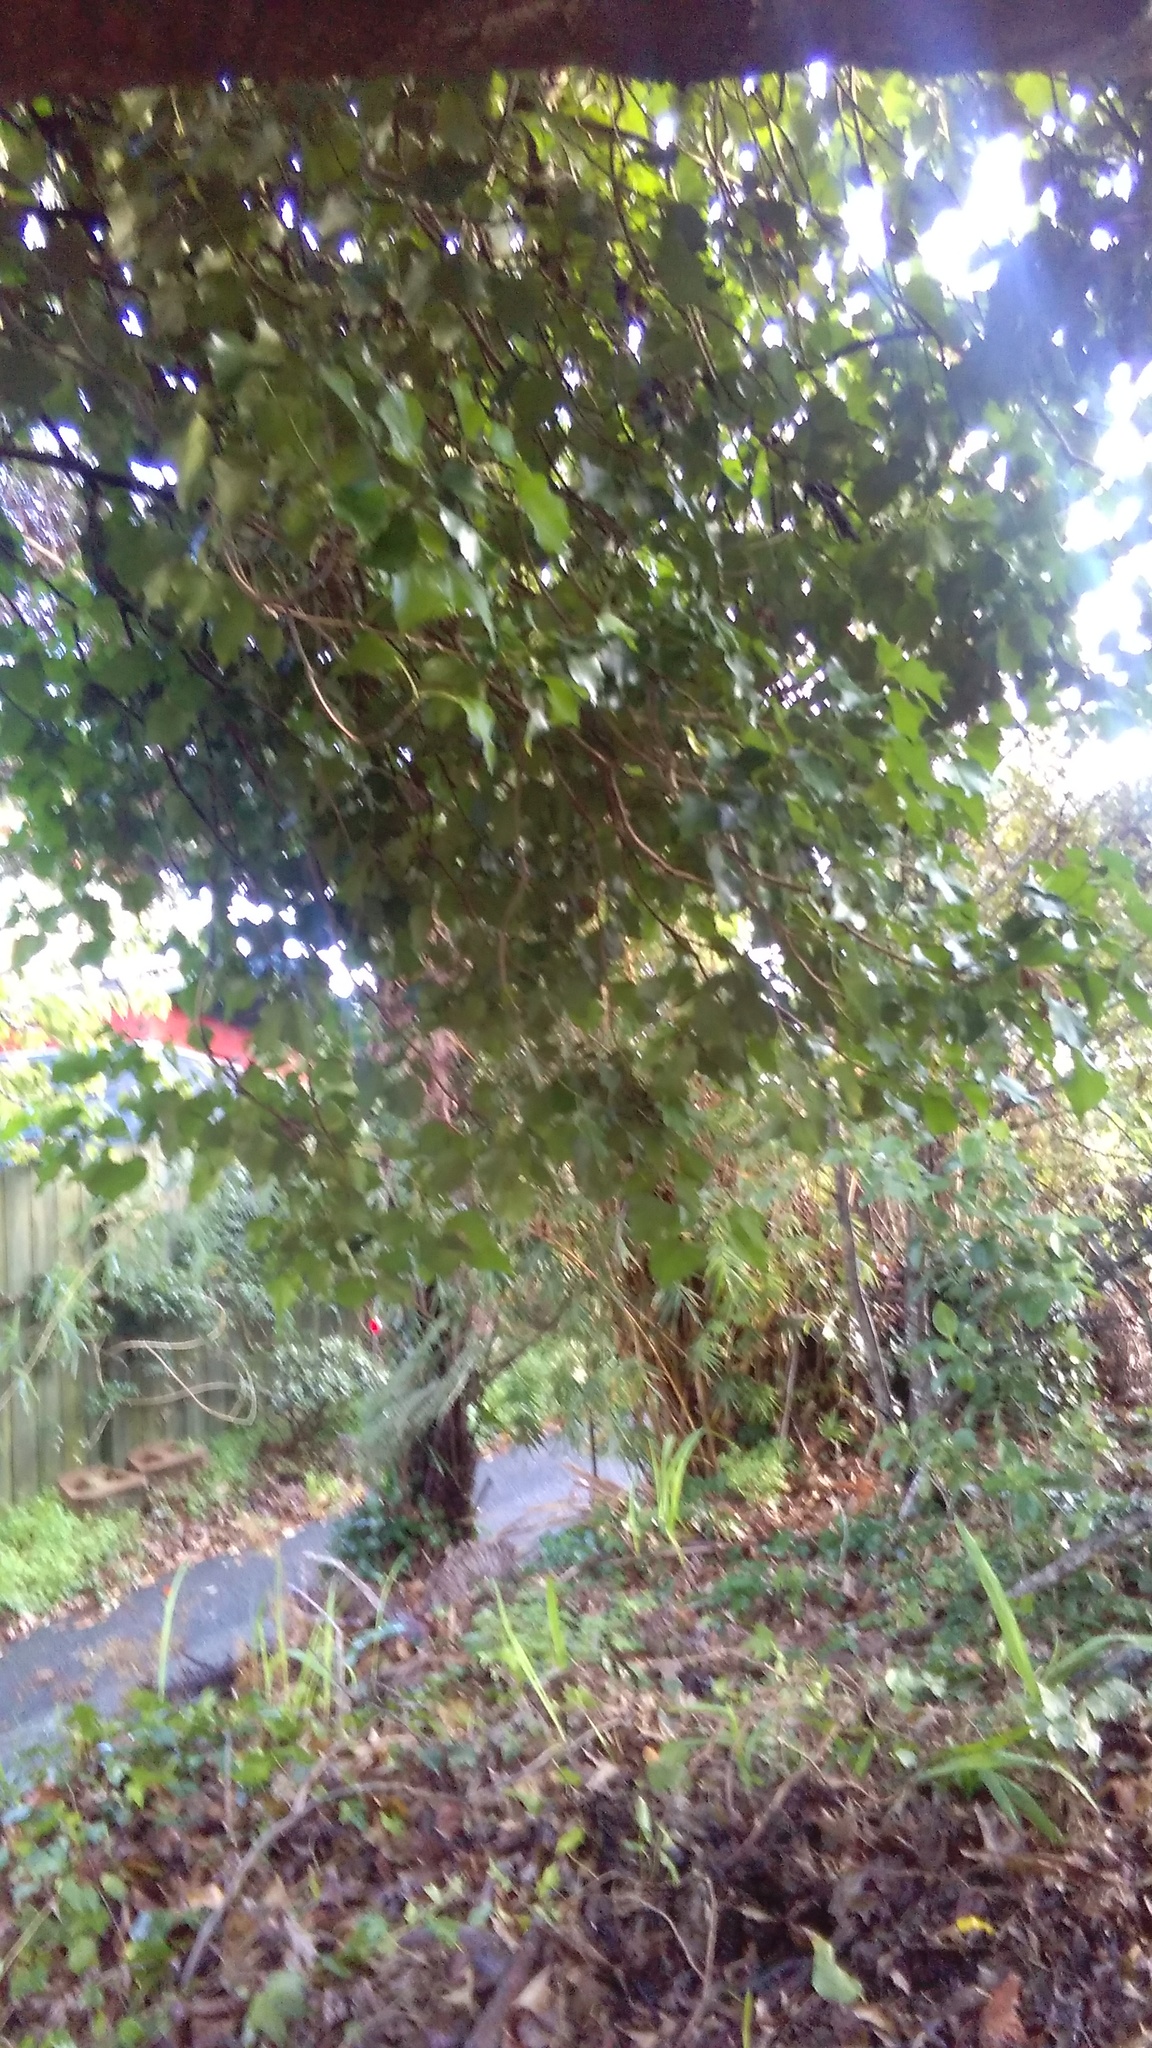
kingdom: Plantae
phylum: Tracheophyta
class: Magnoliopsida
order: Apiales
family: Araliaceae
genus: Hedera
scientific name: Hedera helix
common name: Ivy
